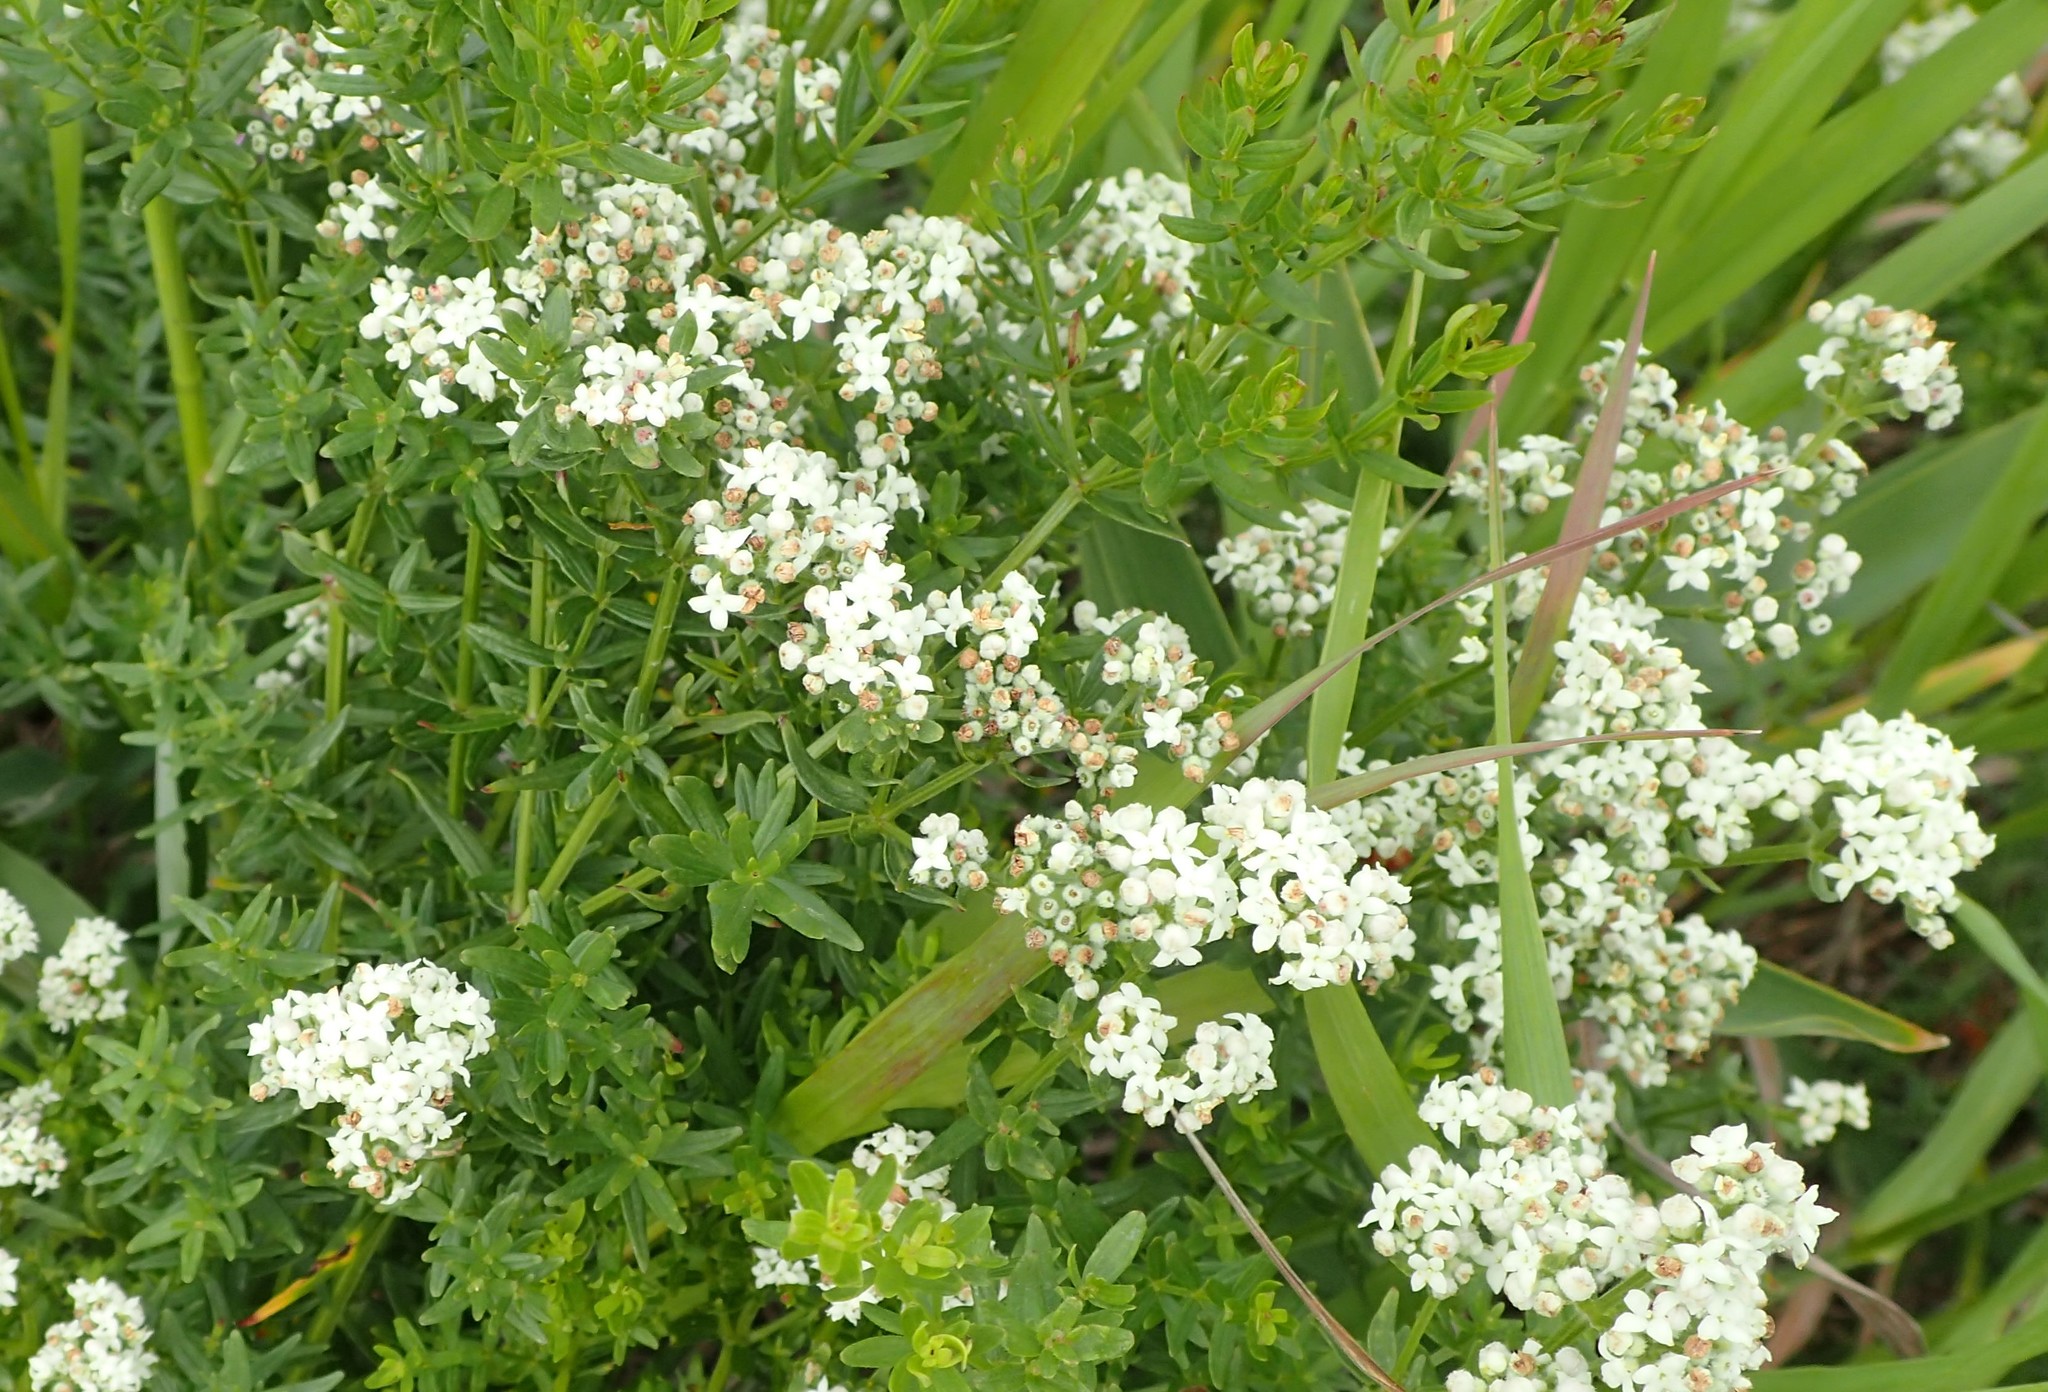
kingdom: Plantae
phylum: Tracheophyta
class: Magnoliopsida
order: Gentianales
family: Rubiaceae
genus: Galium
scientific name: Galium boreale
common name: Northern bedstraw
